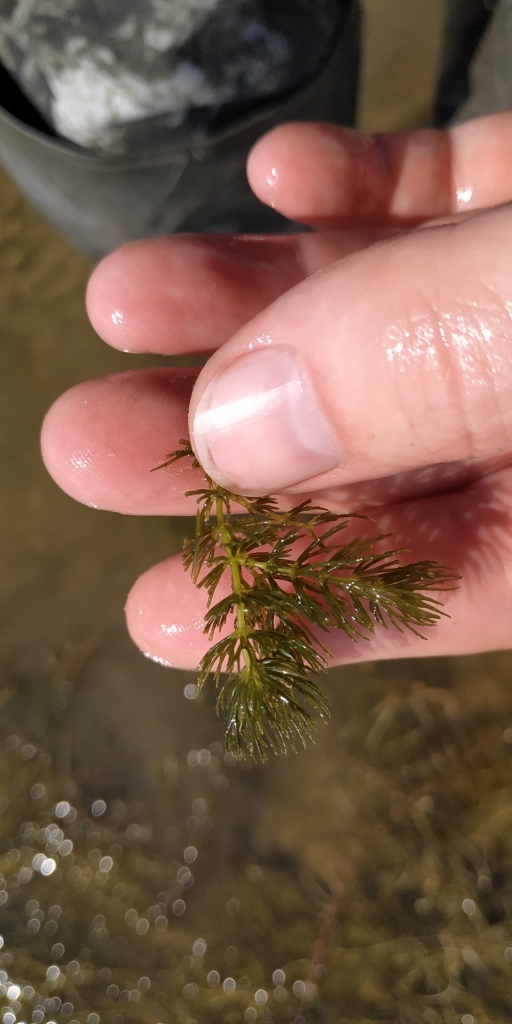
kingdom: Plantae
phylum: Tracheophyta
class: Magnoliopsida
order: Ceratophyllales
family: Ceratophyllaceae
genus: Ceratophyllum
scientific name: Ceratophyllum demersum
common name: Rigid hornwort
